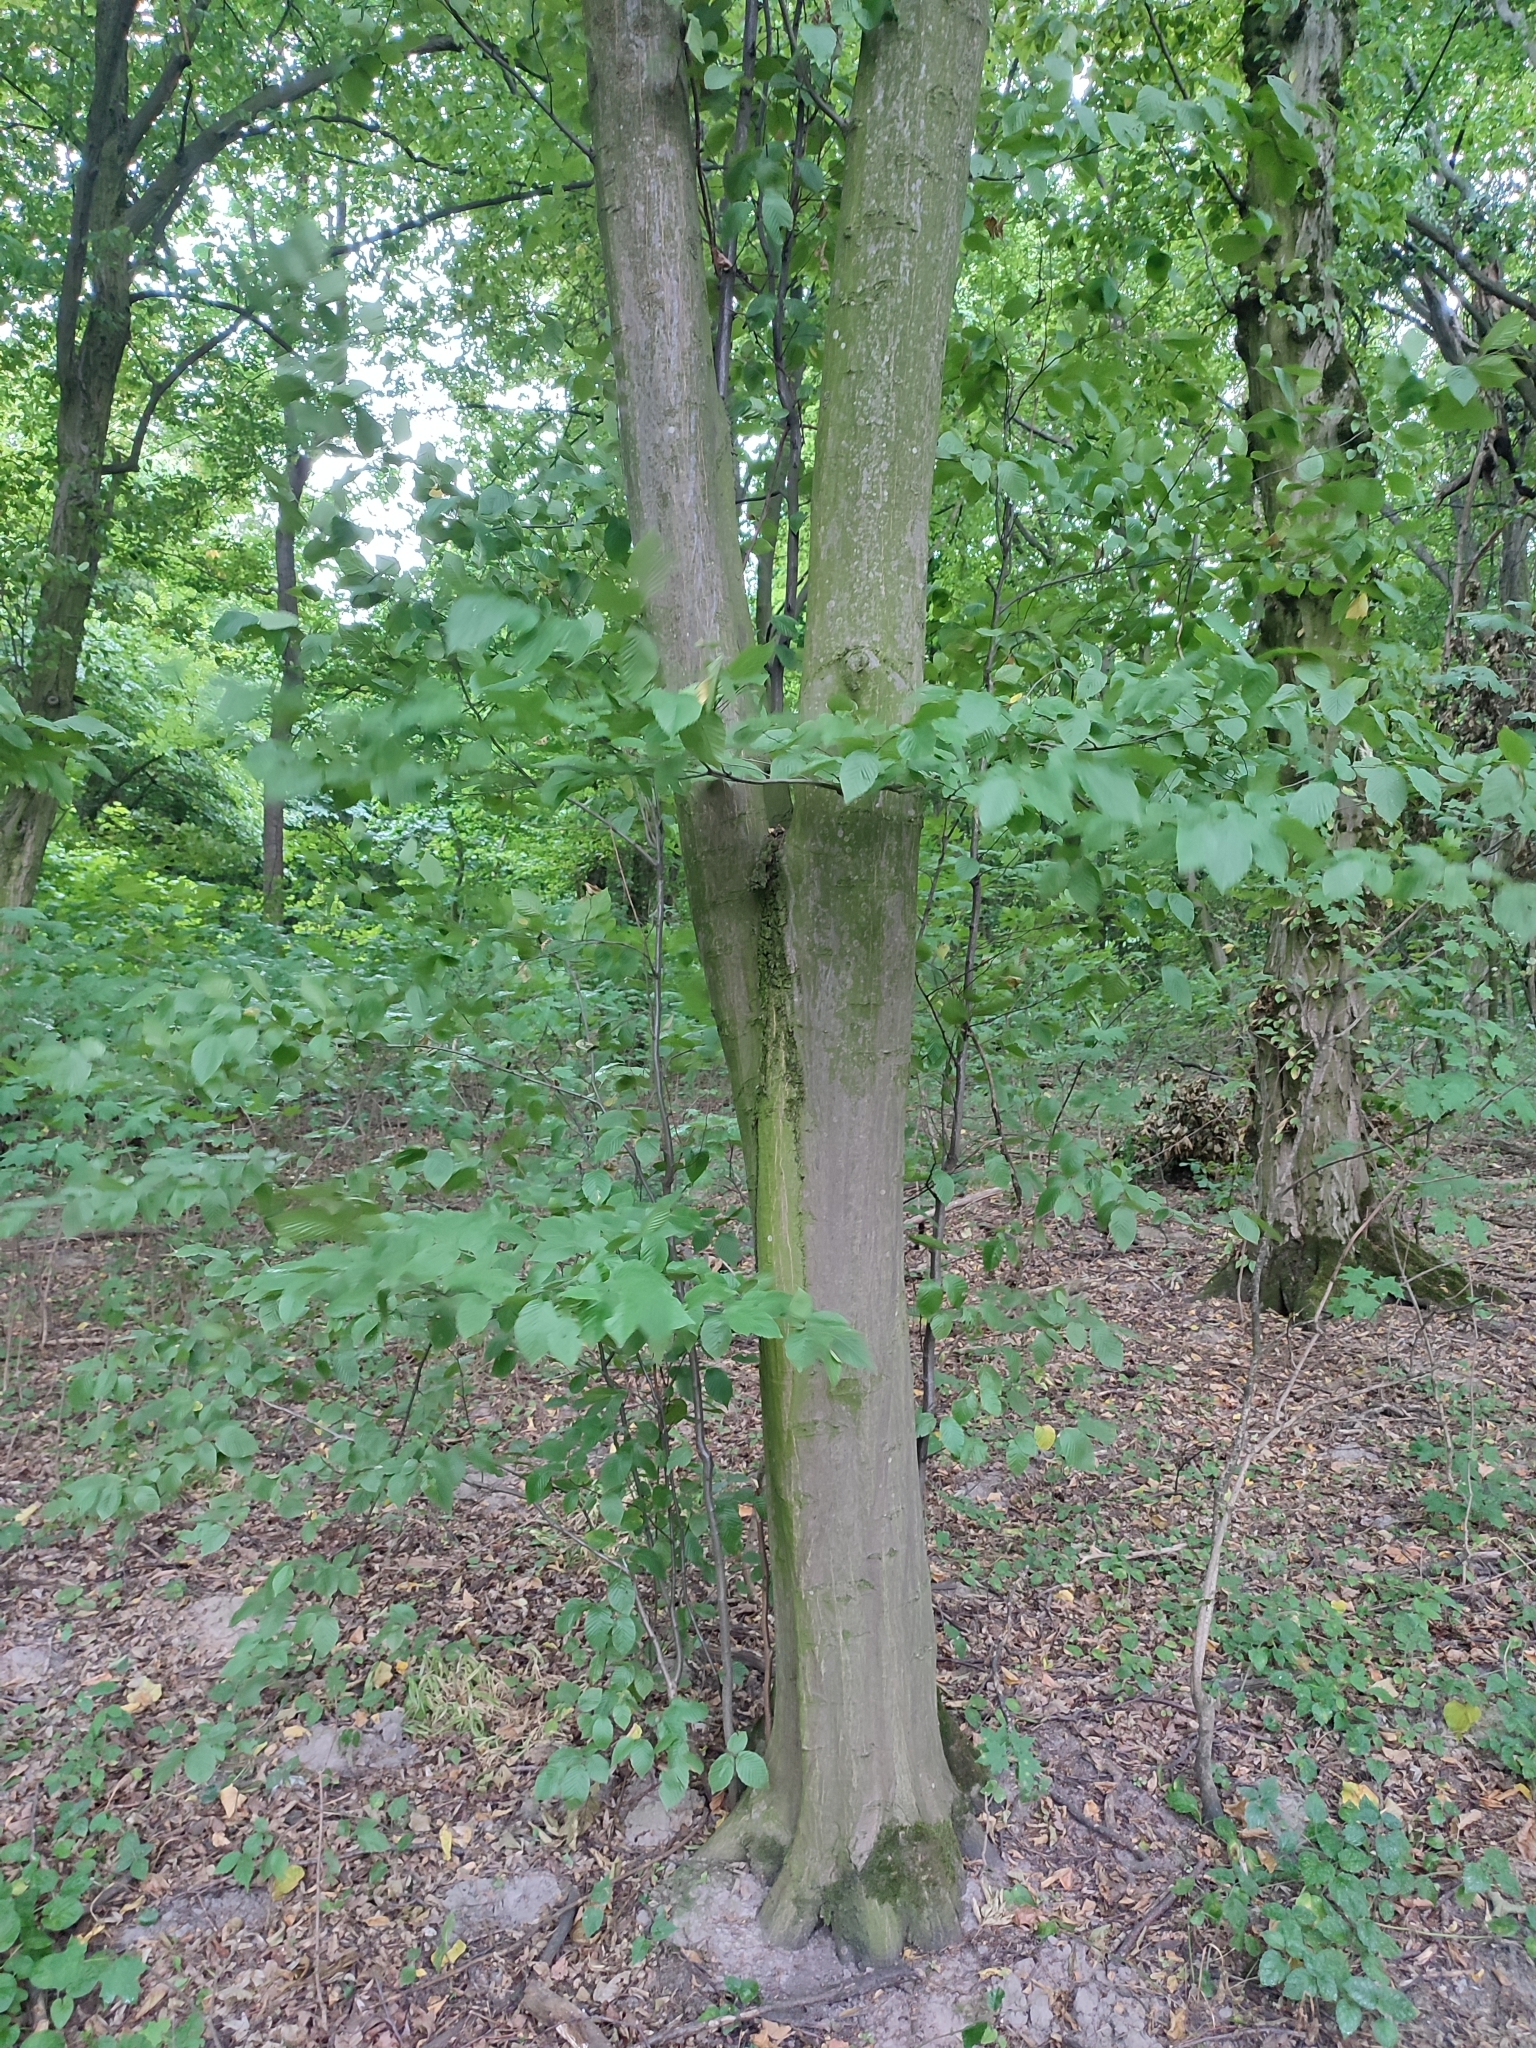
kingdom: Plantae
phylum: Tracheophyta
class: Magnoliopsida
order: Fagales
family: Betulaceae
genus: Carpinus
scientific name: Carpinus betulus
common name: Hornbeam
